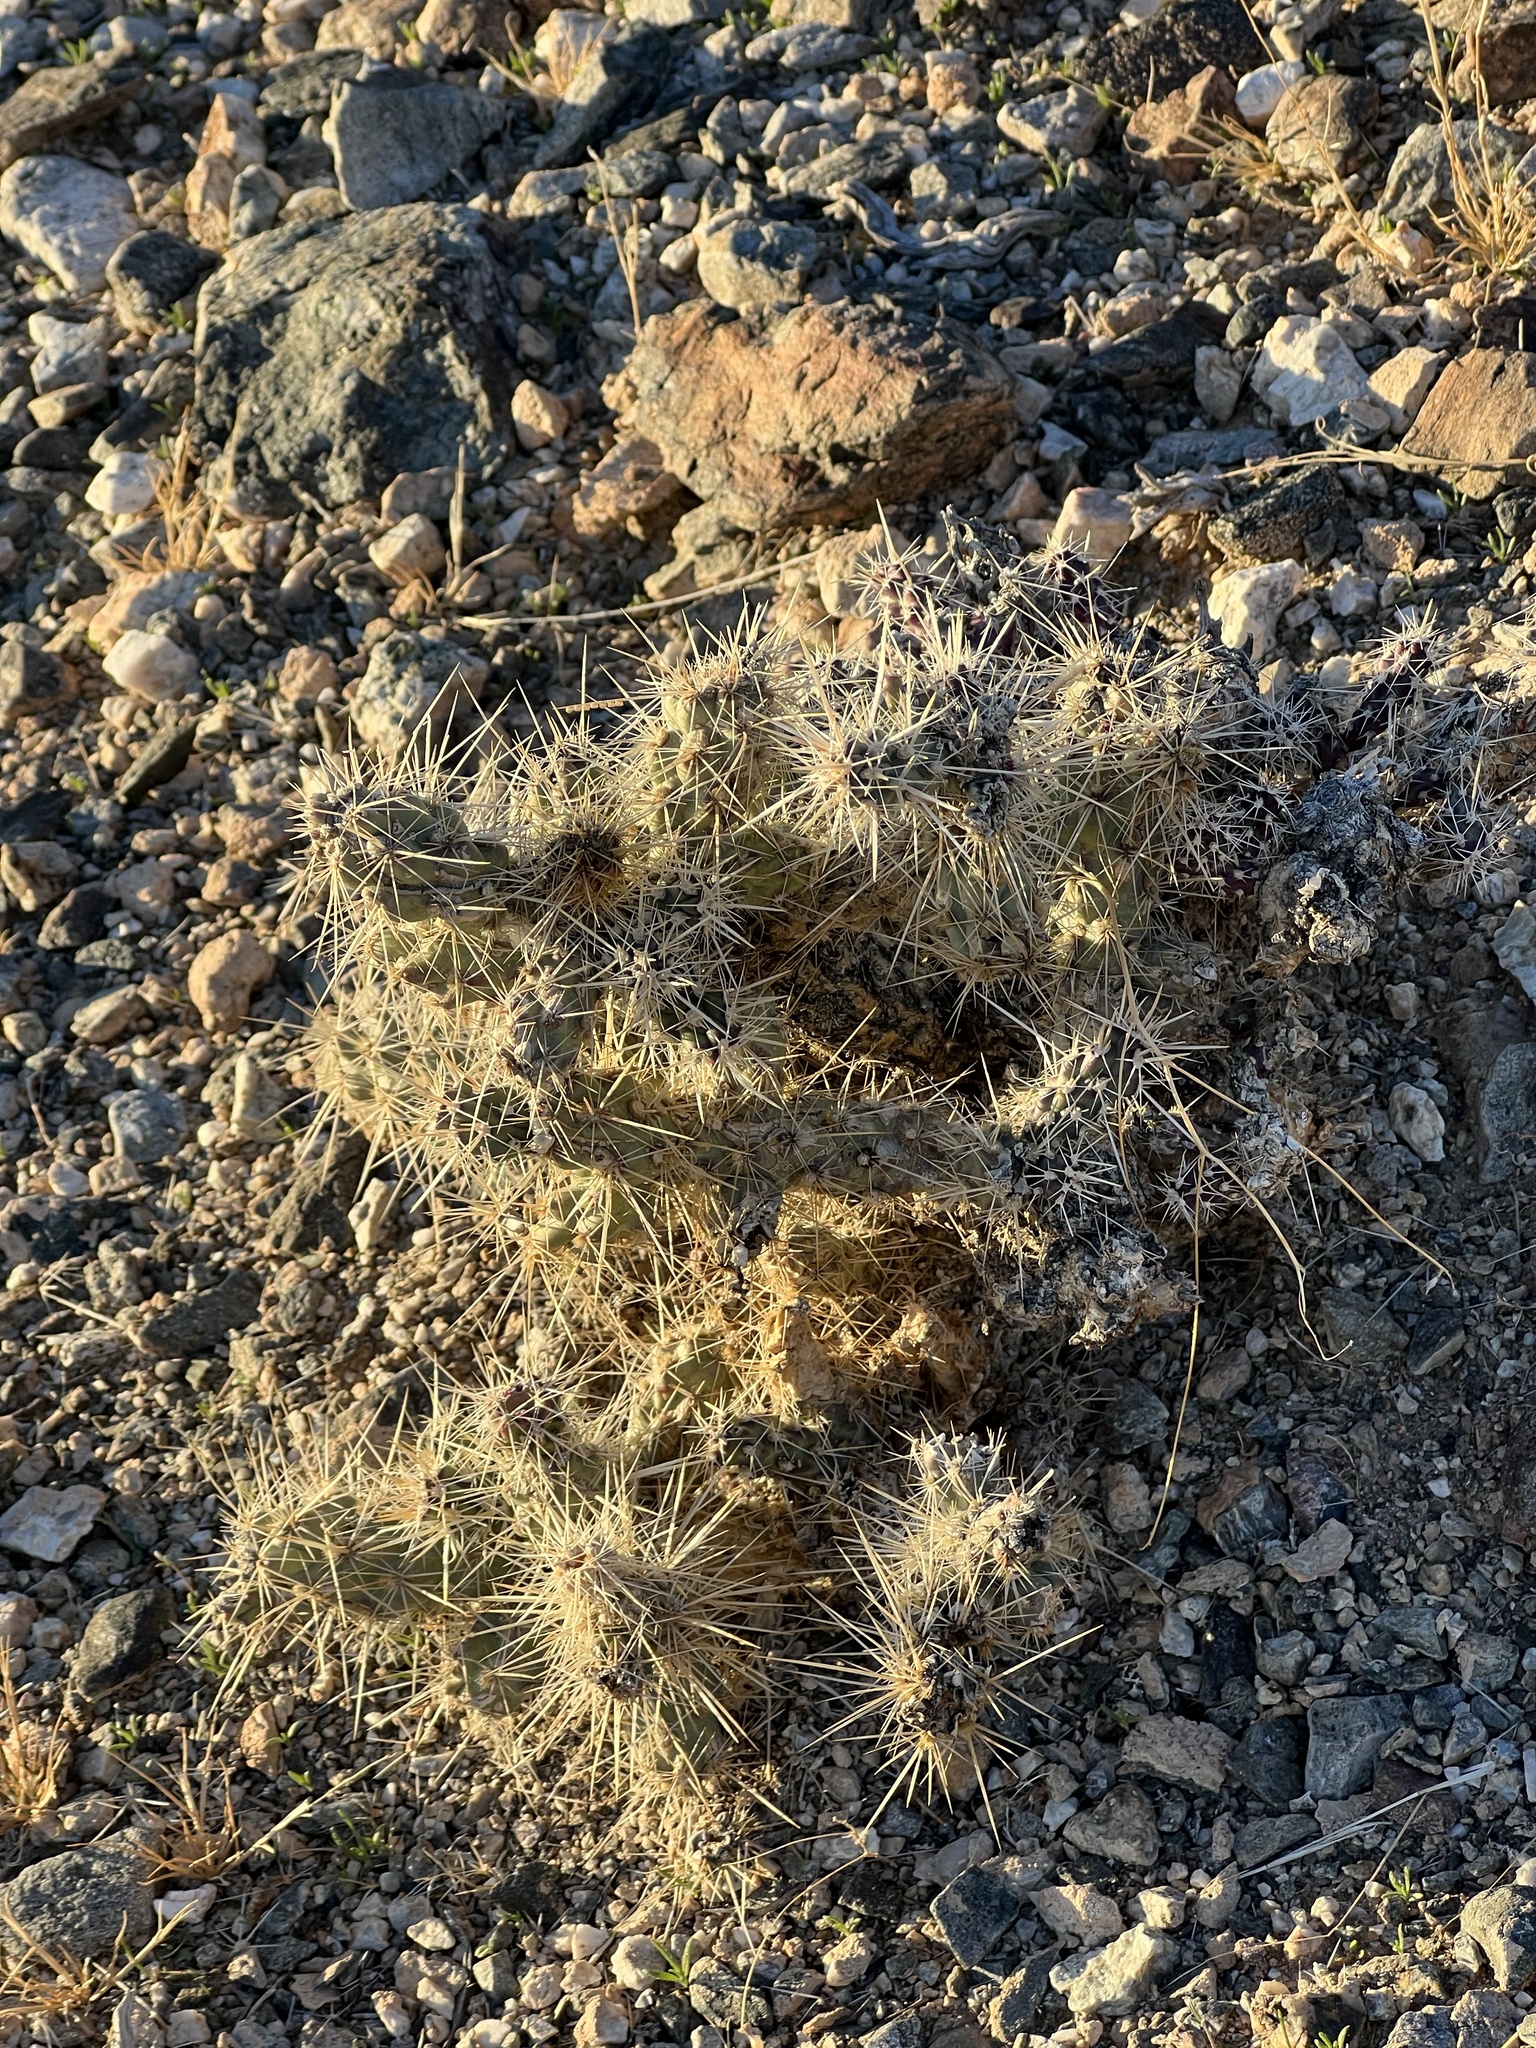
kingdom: Plantae
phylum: Tracheophyta
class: Magnoliopsida
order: Caryophyllales
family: Cactaceae
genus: Cylindropuntia
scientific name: Cylindropuntia echinocarpa
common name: Ground cholla
